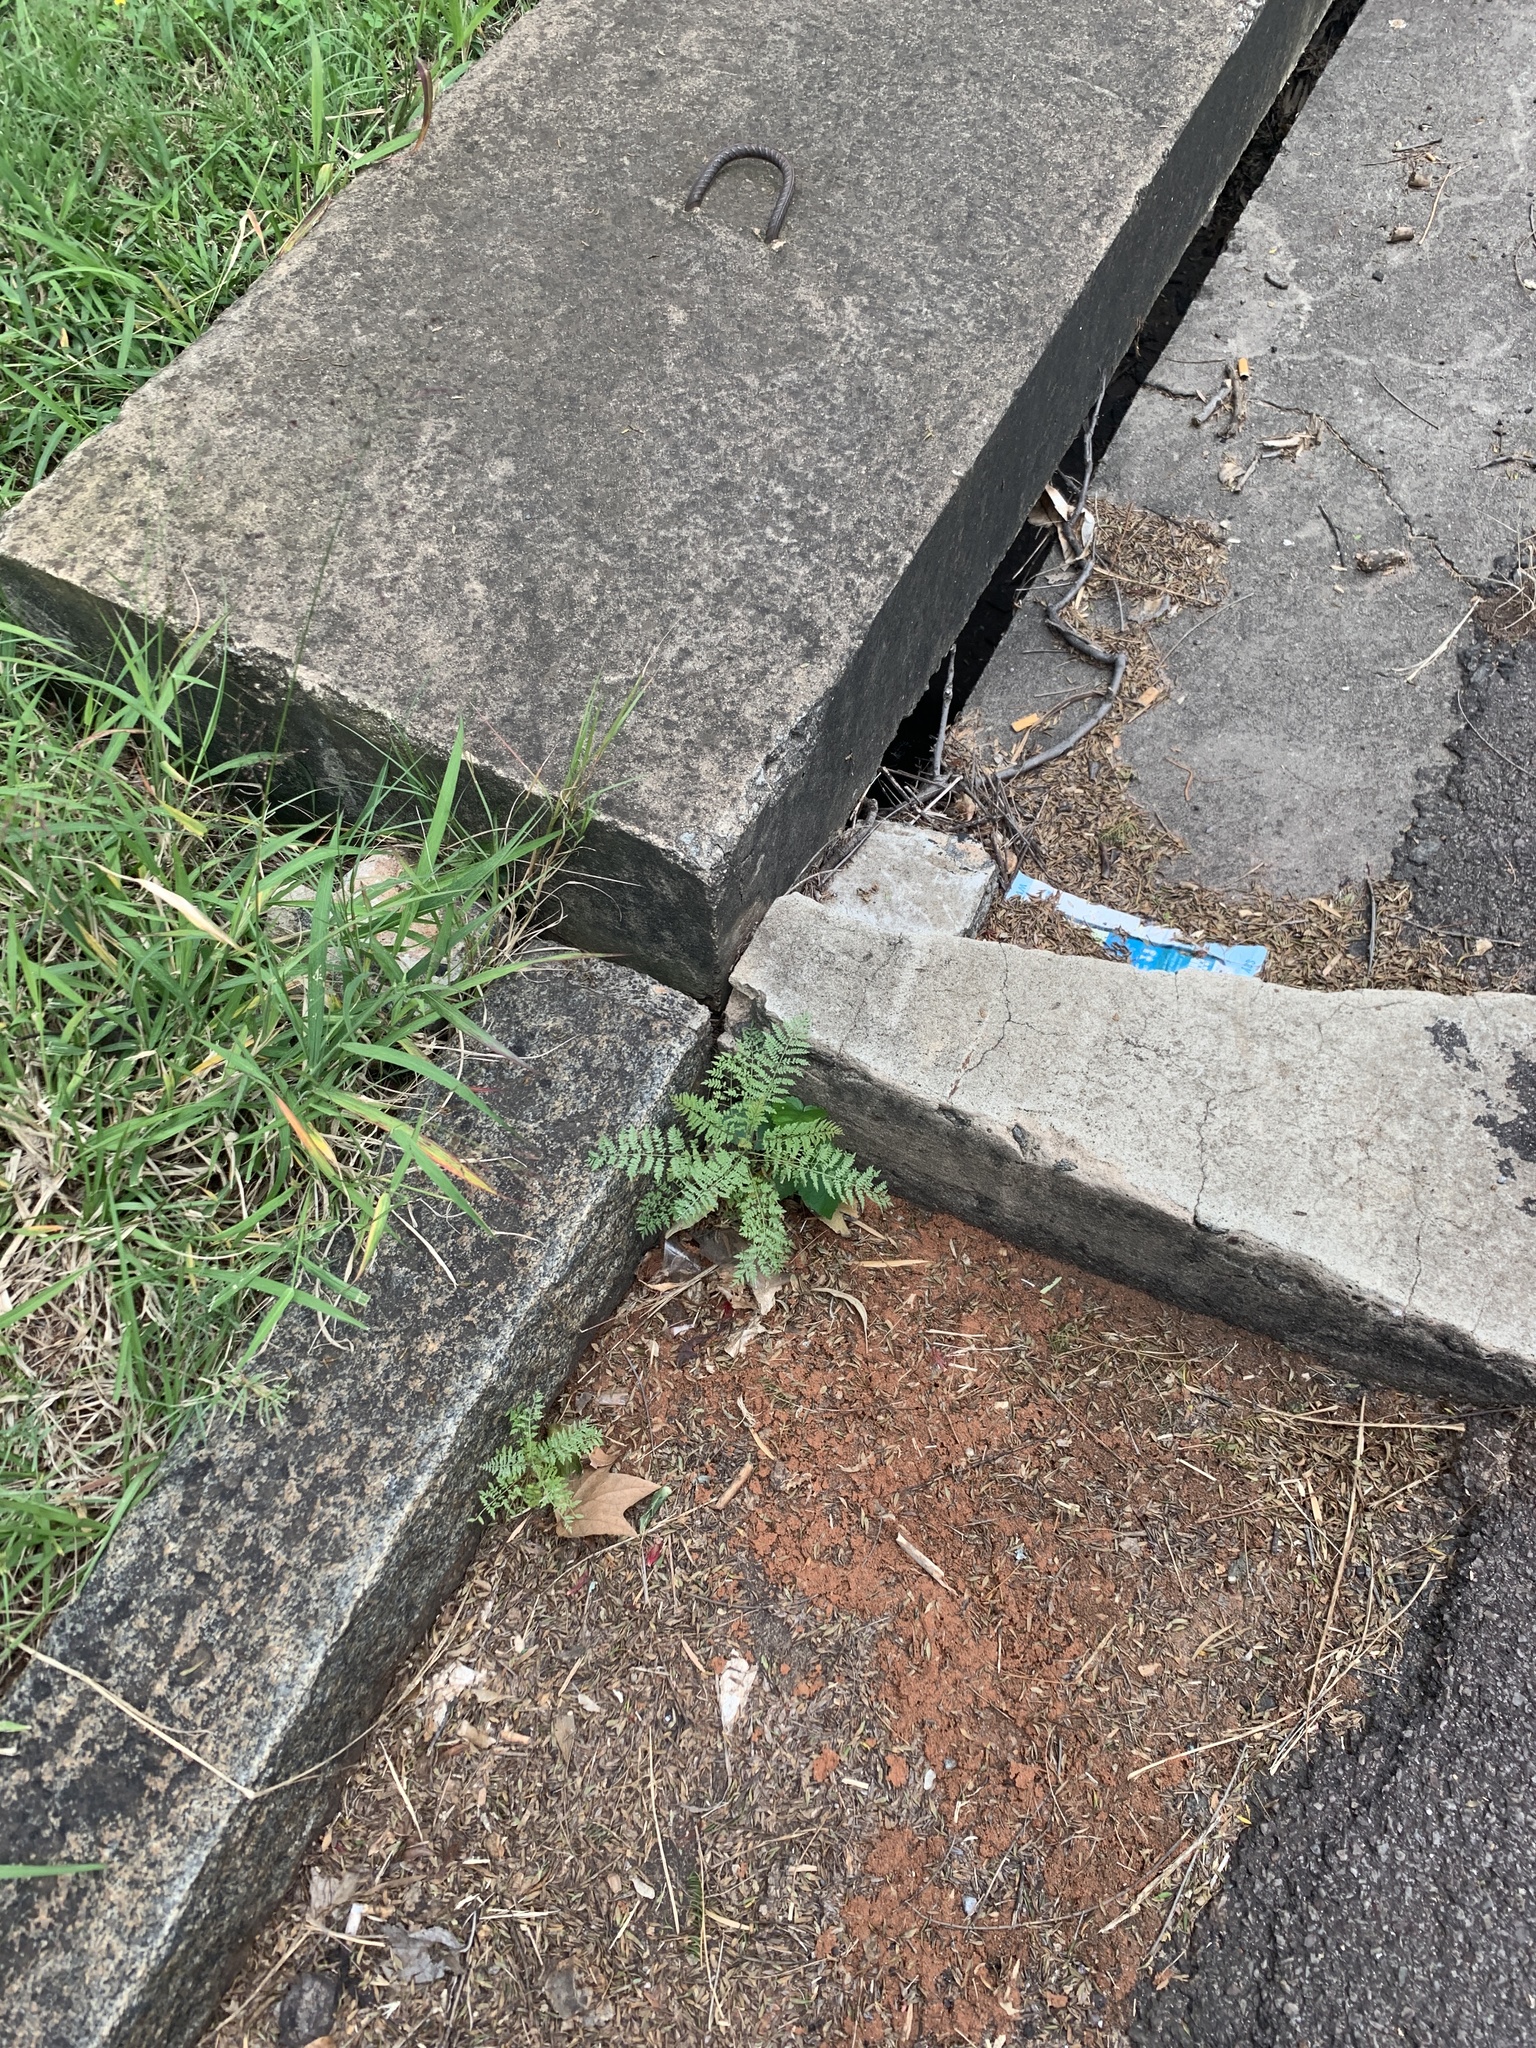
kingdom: Plantae
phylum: Tracheophyta
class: Magnoliopsida
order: Lamiales
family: Bignoniaceae
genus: Jacaranda
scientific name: Jacaranda mimosifolia
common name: Black poui
